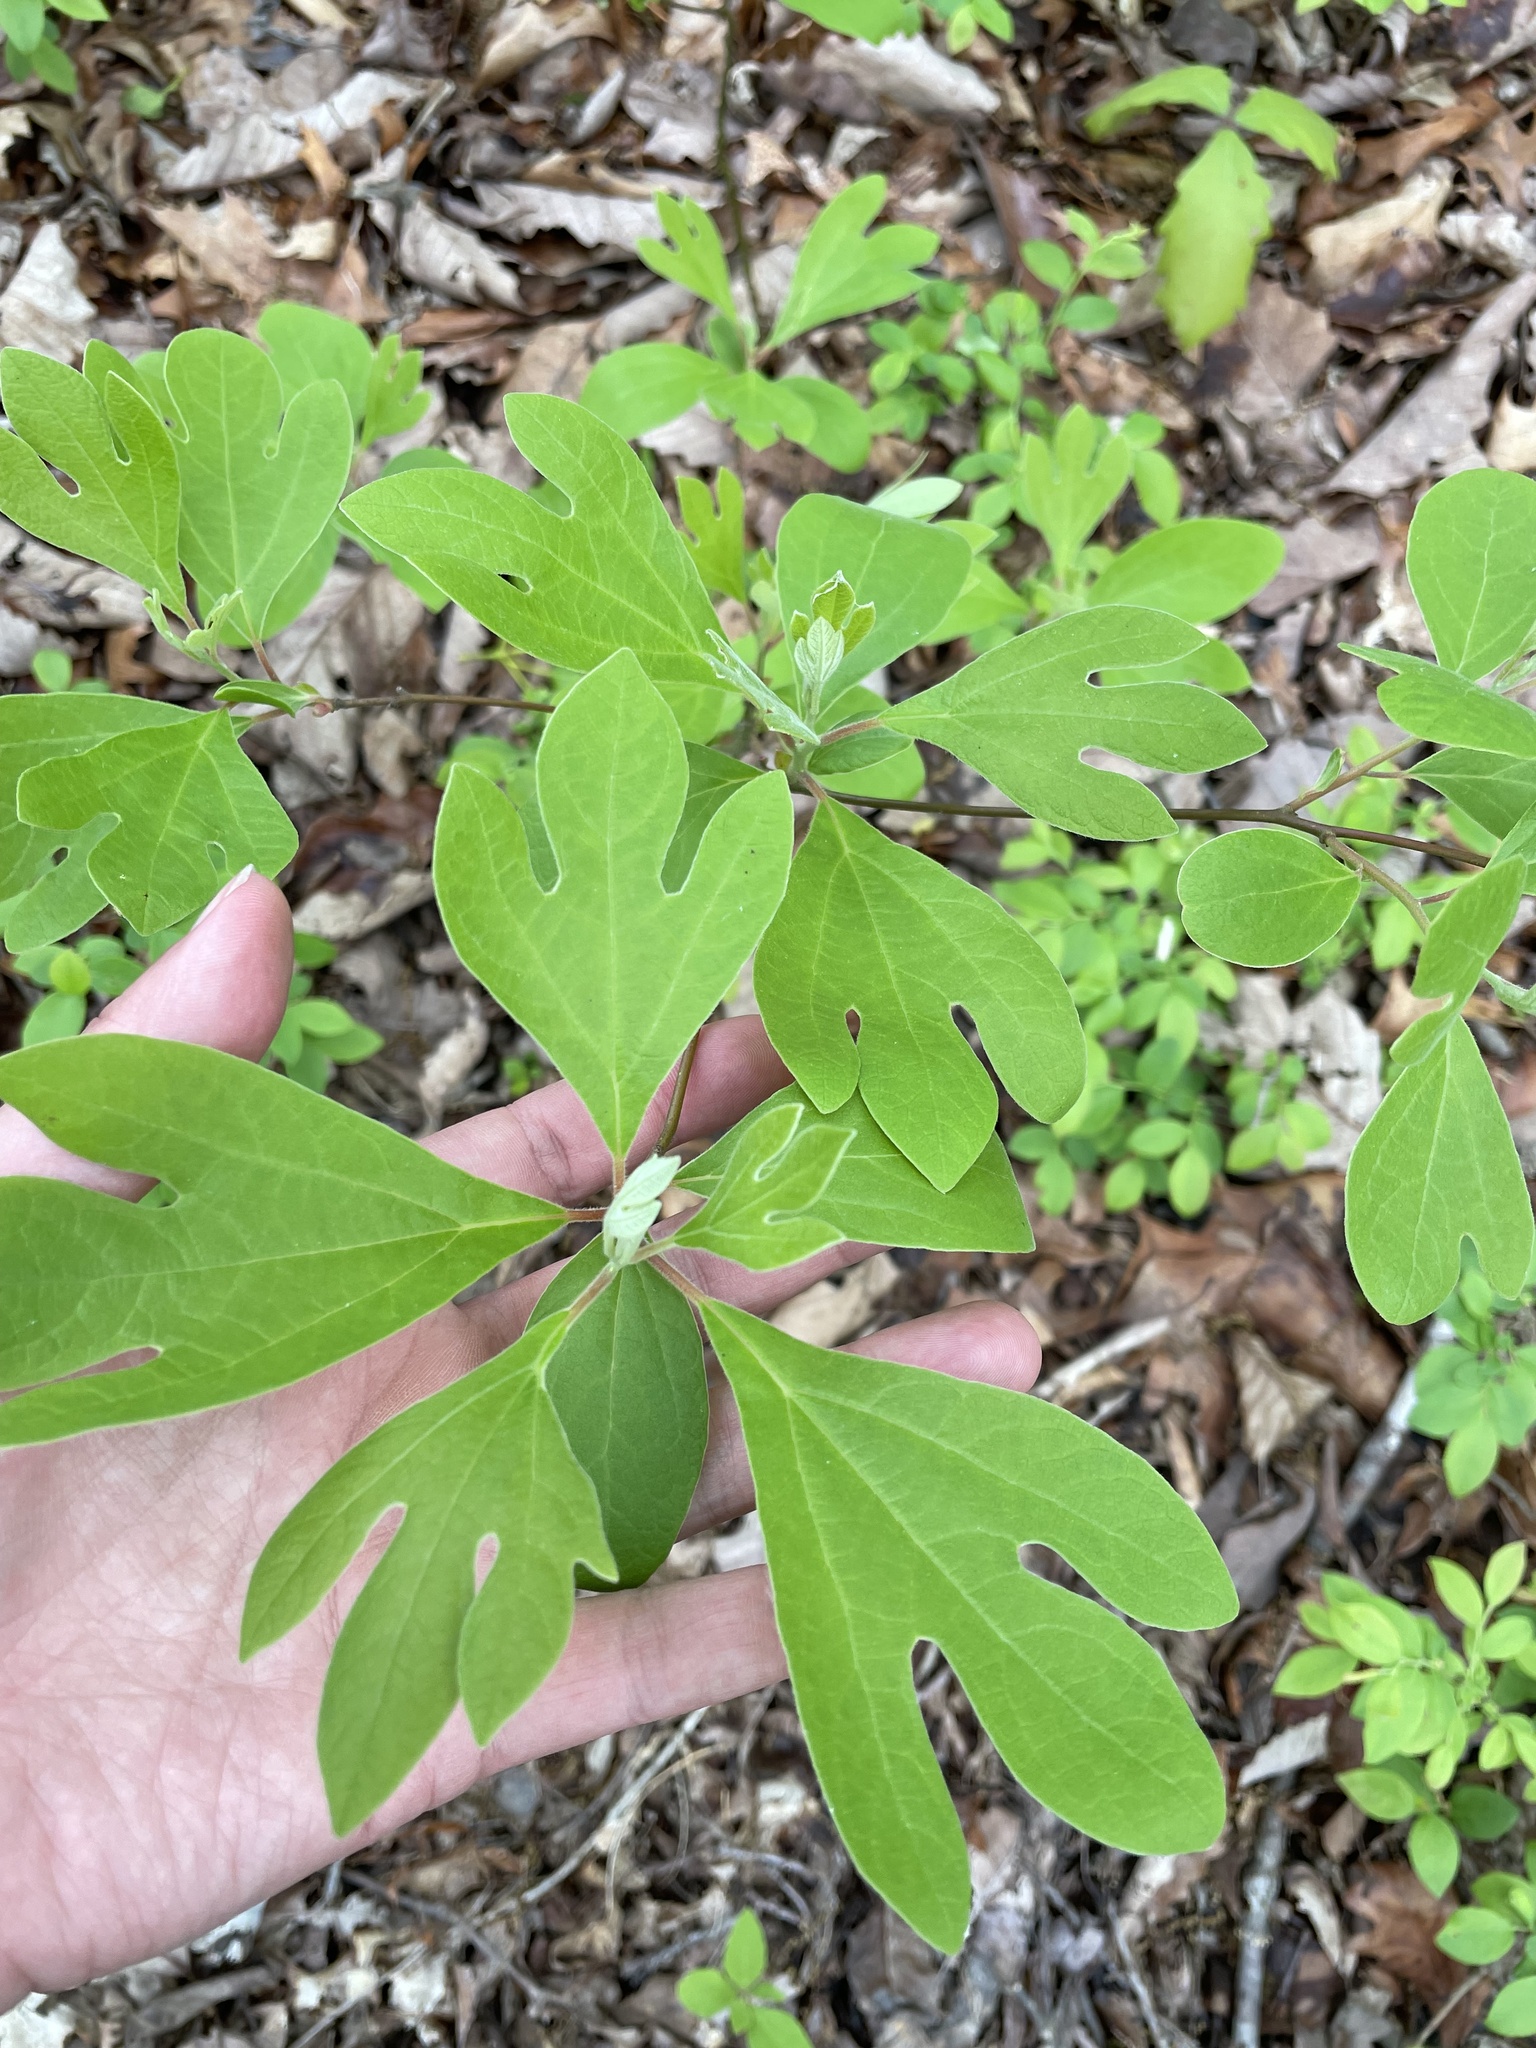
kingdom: Plantae
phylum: Tracheophyta
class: Magnoliopsida
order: Laurales
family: Lauraceae
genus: Sassafras
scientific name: Sassafras albidum
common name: Sassafras
